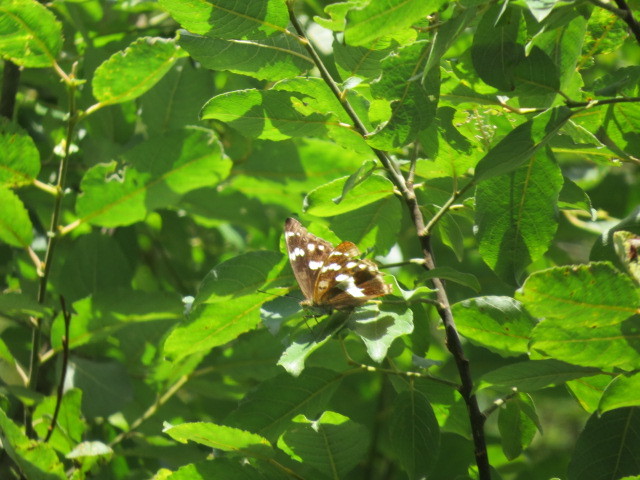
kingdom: Animalia
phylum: Arthropoda
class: Insecta
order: Lepidoptera
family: Nymphalidae
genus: Apatura
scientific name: Apatura iris
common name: Purple emperor
